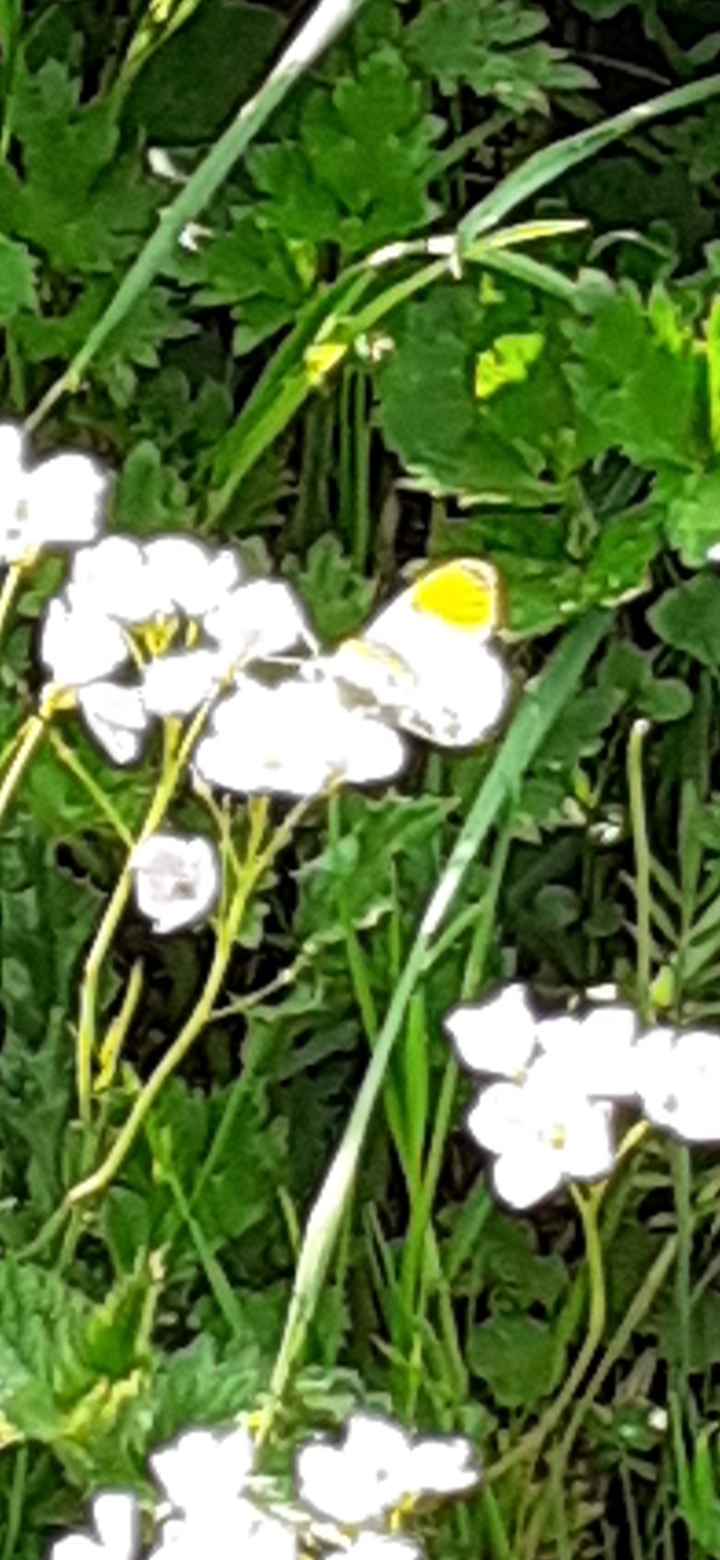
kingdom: Animalia
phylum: Arthropoda
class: Insecta
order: Lepidoptera
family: Pieridae
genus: Anthocharis
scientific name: Anthocharis cardamines
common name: Orange-tip
